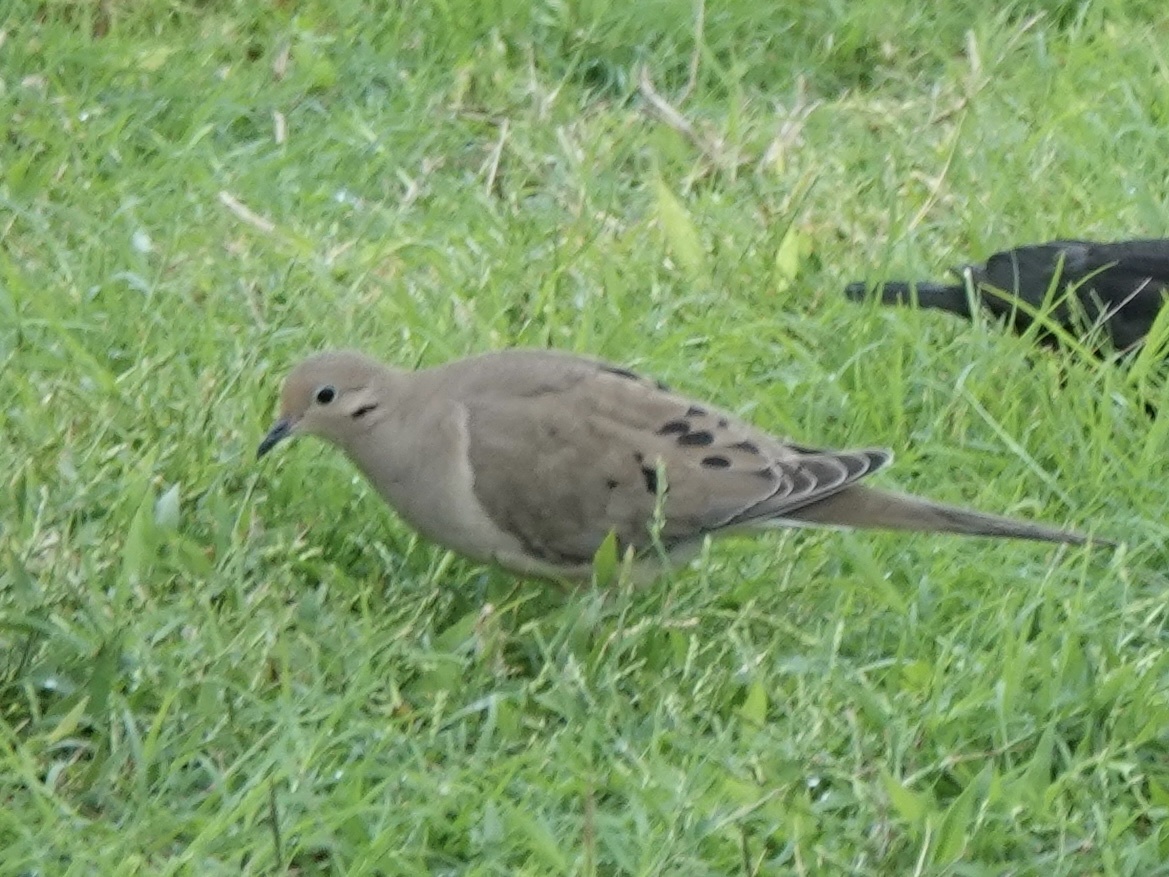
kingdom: Animalia
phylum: Chordata
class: Aves
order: Columbiformes
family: Columbidae
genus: Zenaida
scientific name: Zenaida macroura
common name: Mourning dove
